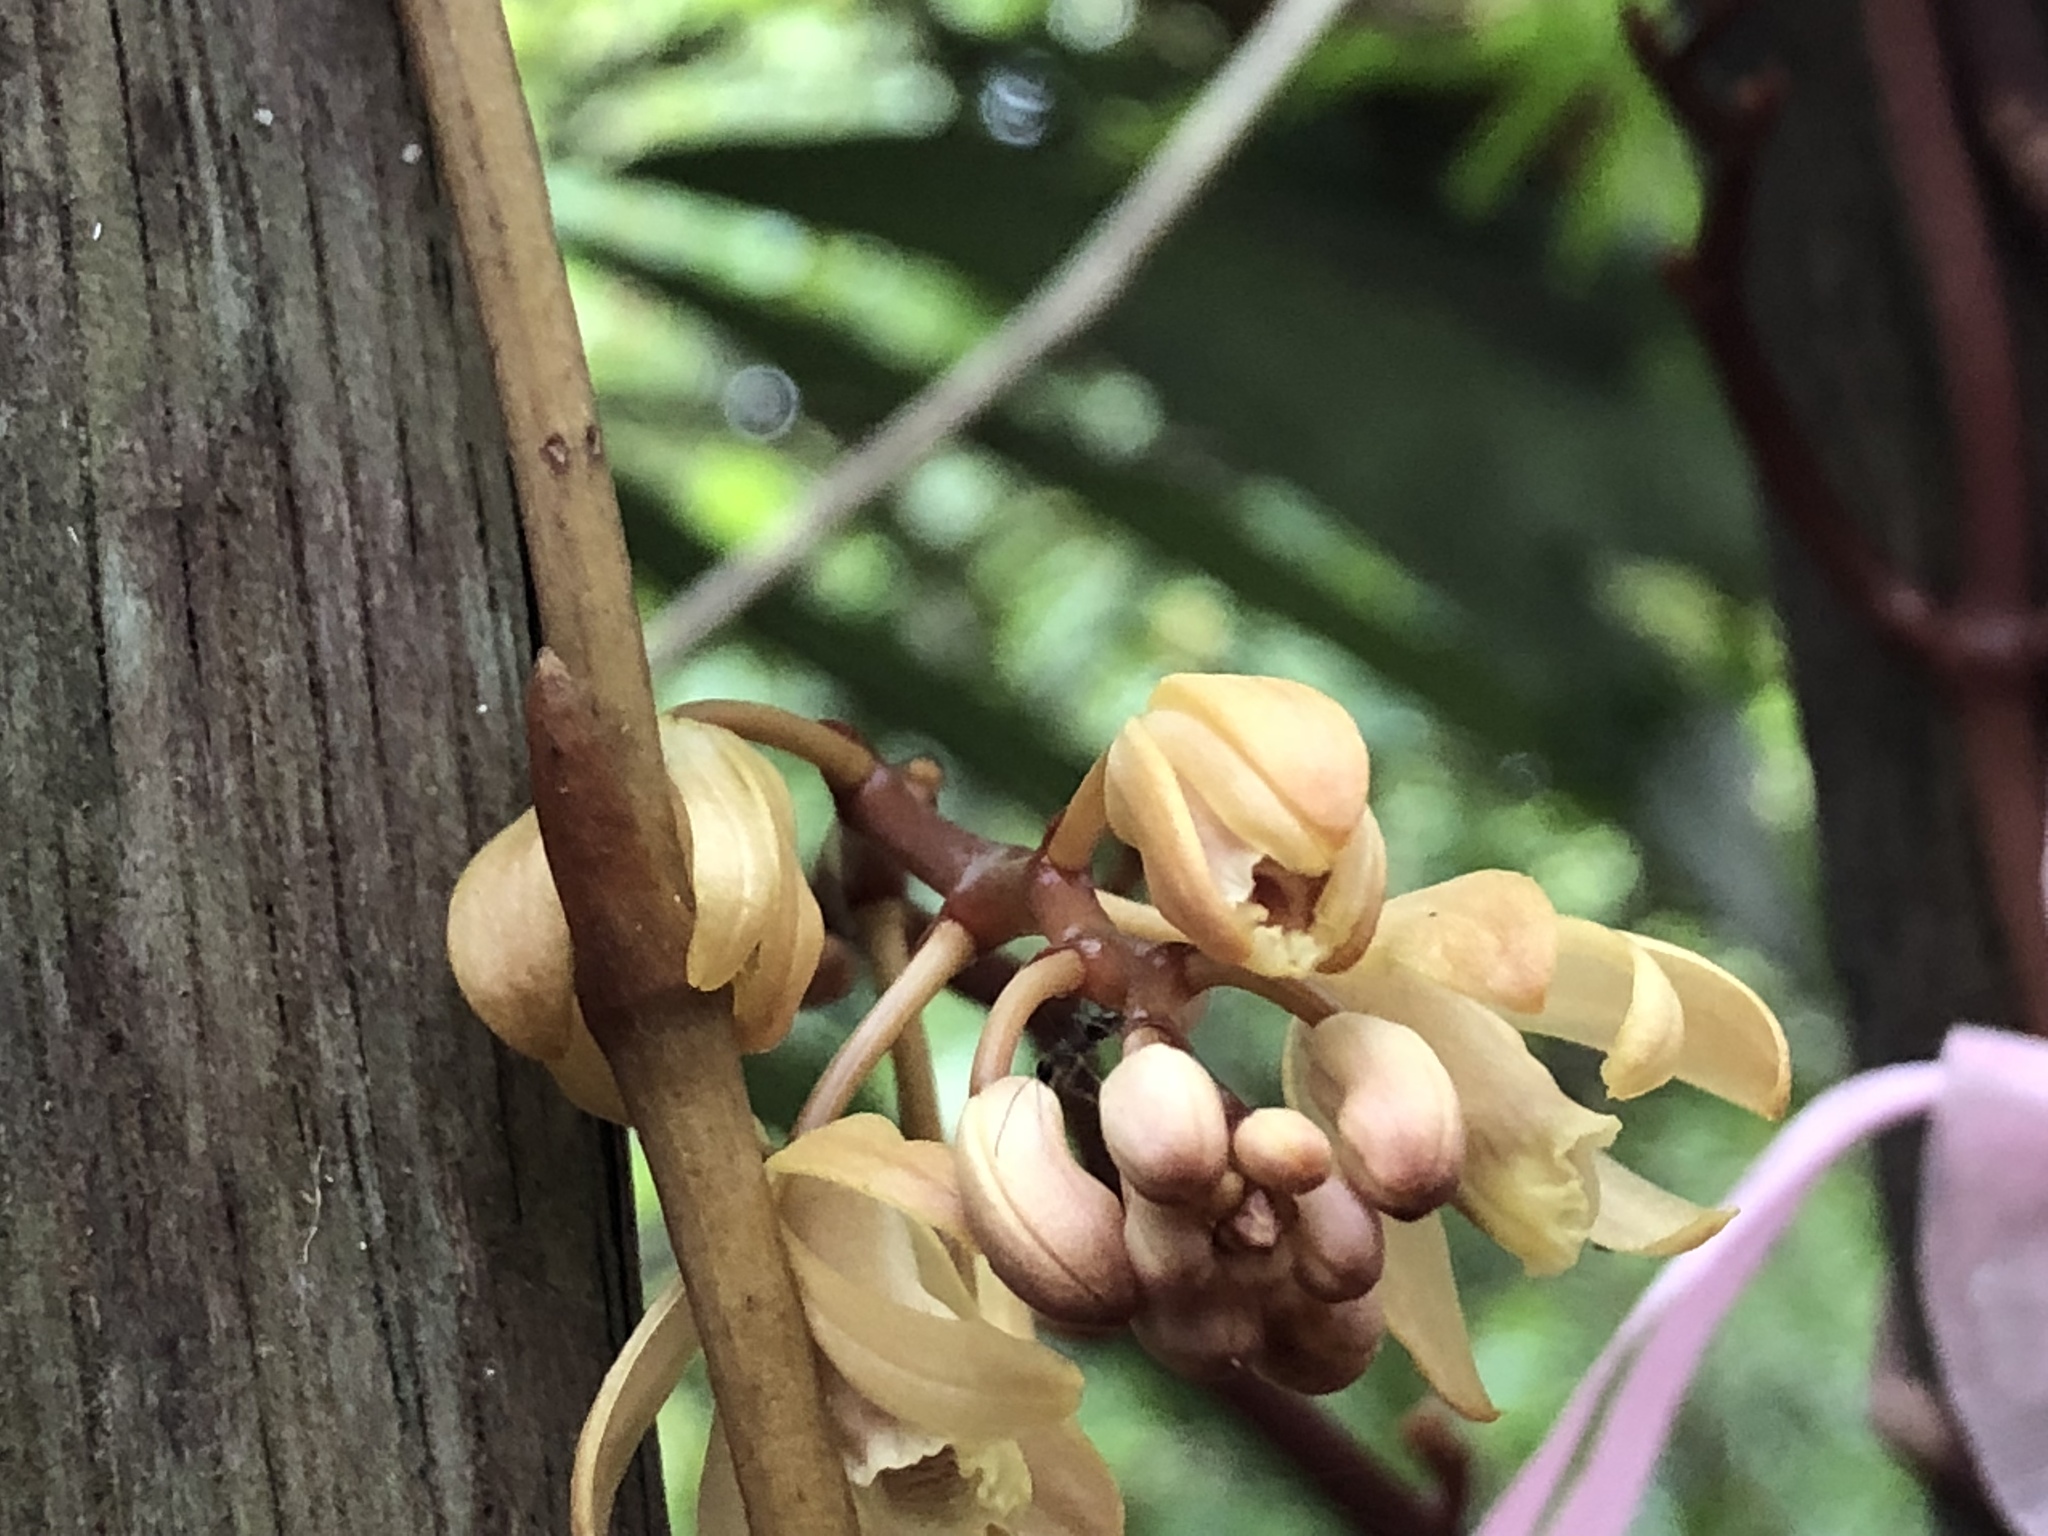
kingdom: Plantae
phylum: Tracheophyta
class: Liliopsida
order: Asparagales
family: Orchidaceae
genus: Erythrorchis
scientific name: Erythrorchis altissima
